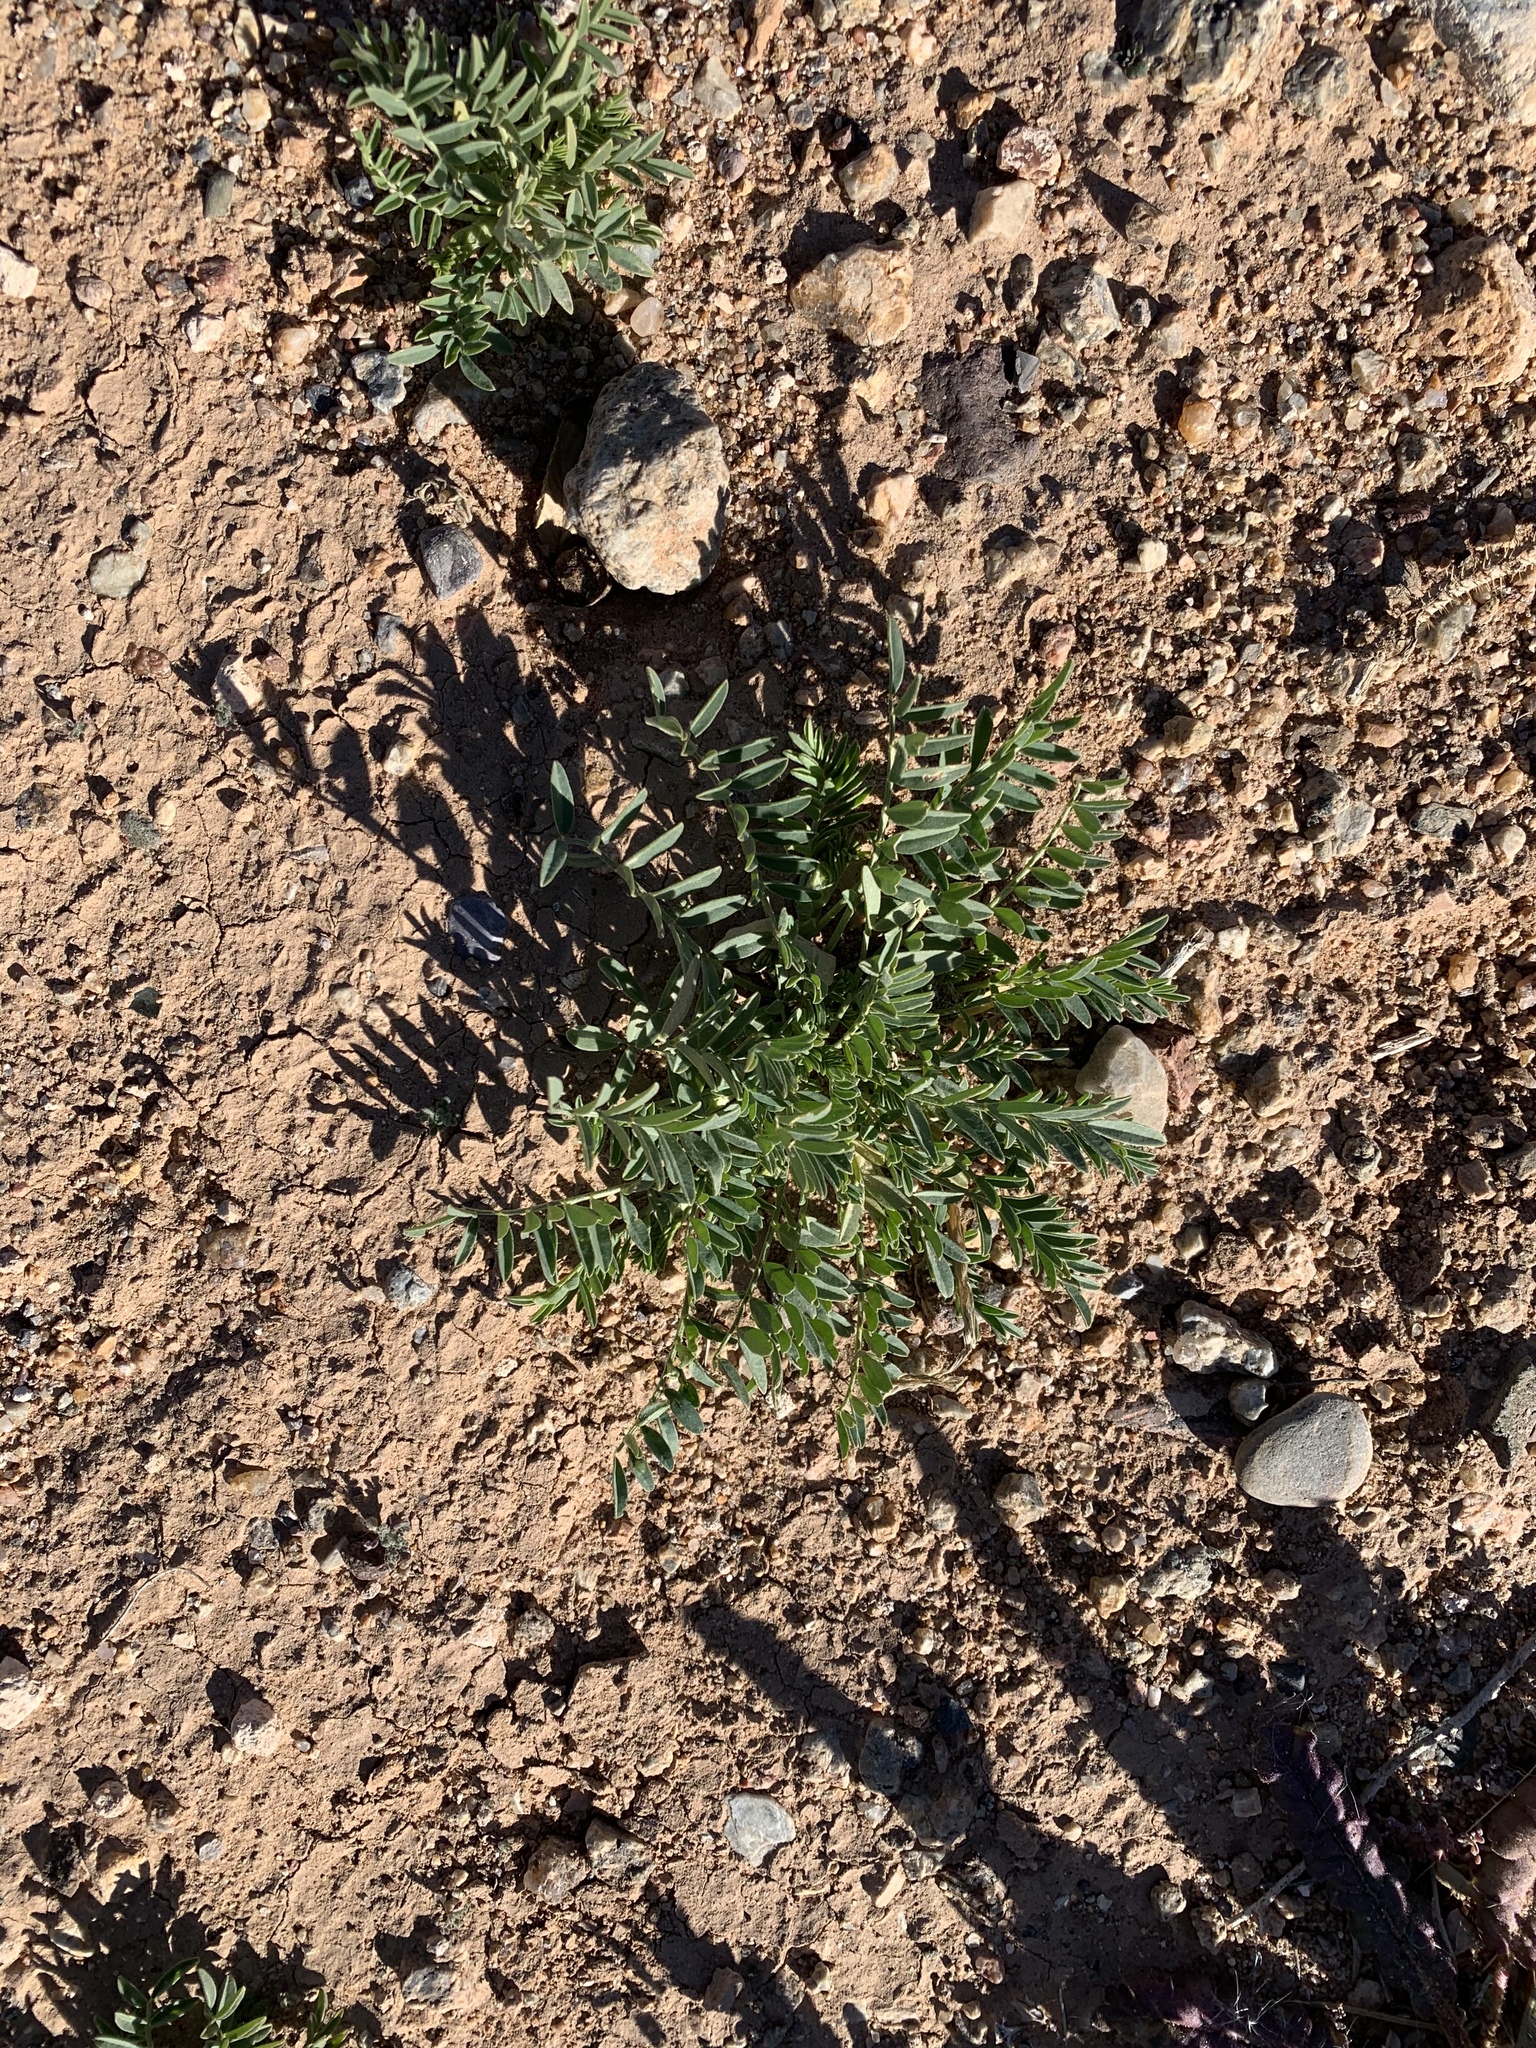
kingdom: Plantae
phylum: Tracheophyta
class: Magnoliopsida
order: Fabales
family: Fabaceae
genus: Astragalus
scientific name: Astragalus allochrous
